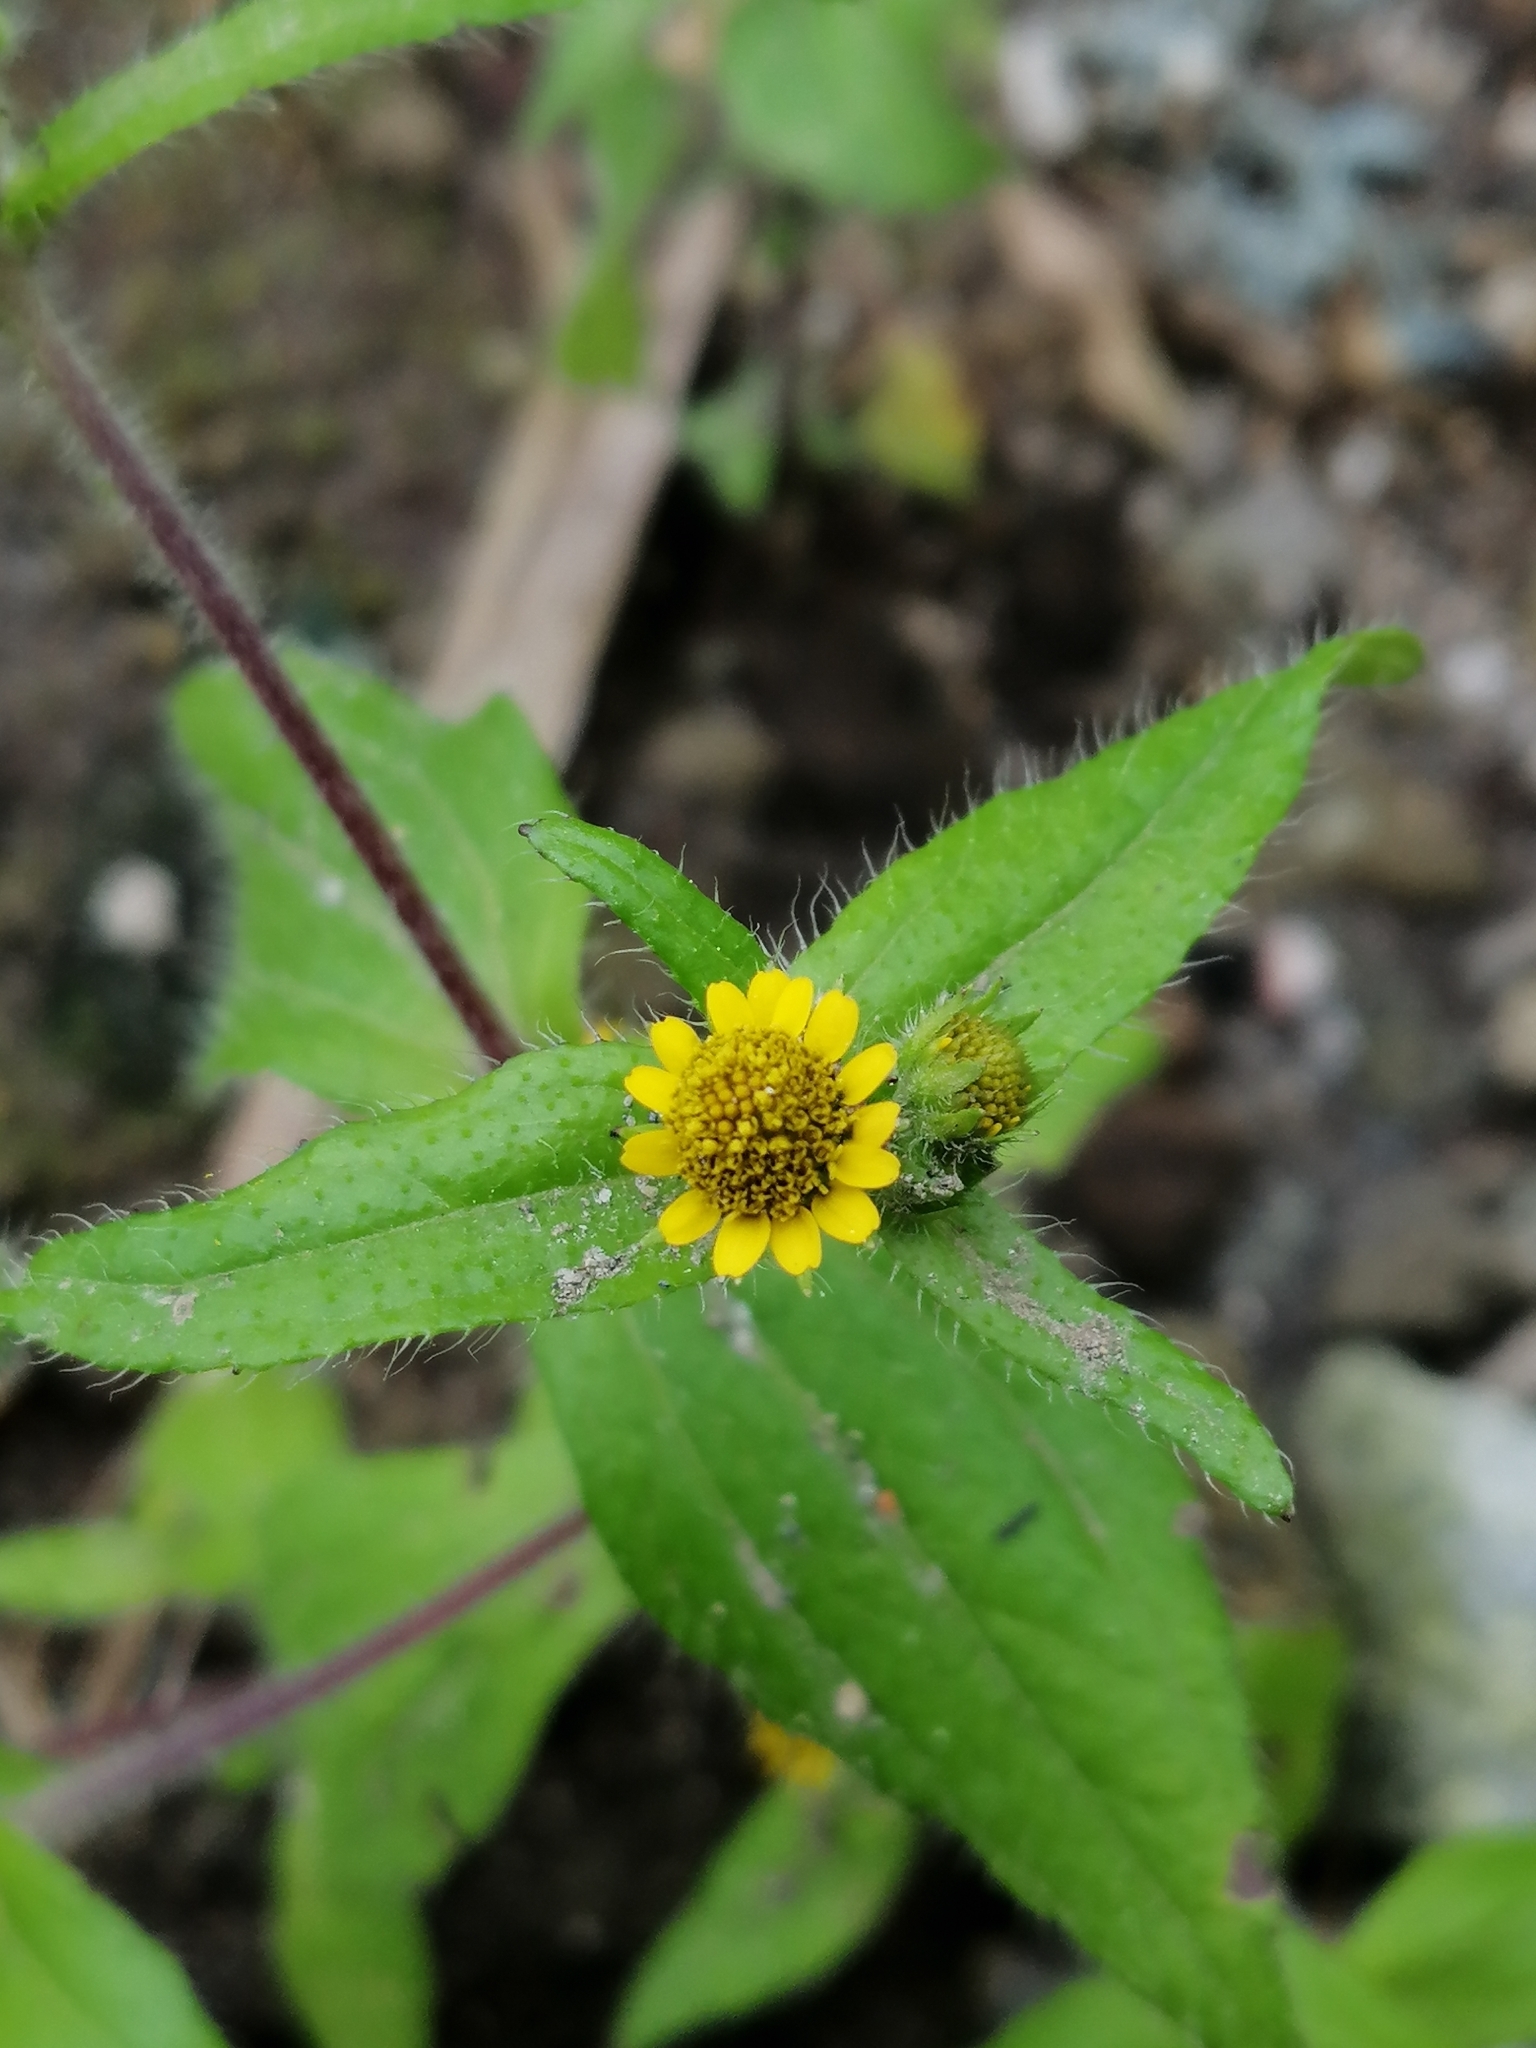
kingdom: Plantae
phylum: Tracheophyta
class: Magnoliopsida
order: Asterales
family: Asteraceae
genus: Jaegeria
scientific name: Jaegeria hirta
